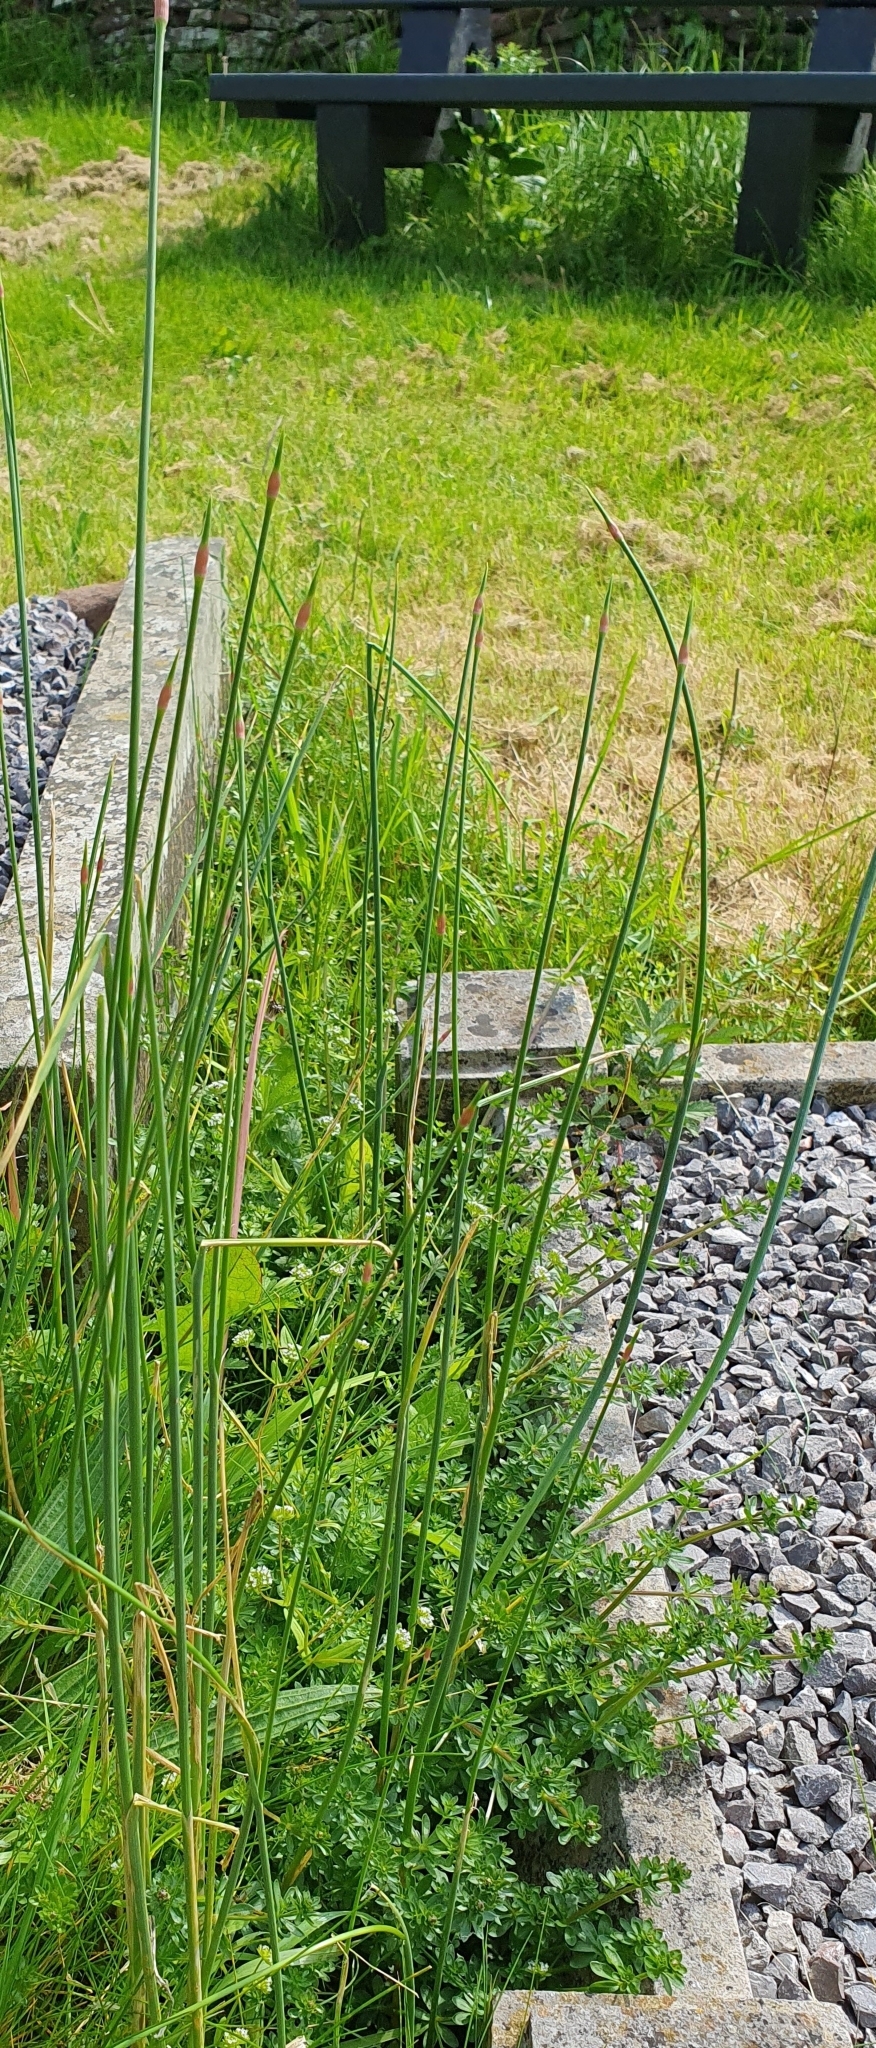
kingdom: Plantae
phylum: Tracheophyta
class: Liliopsida
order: Asparagales
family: Amaryllidaceae
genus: Allium
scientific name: Allium vineale
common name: Crow garlic
